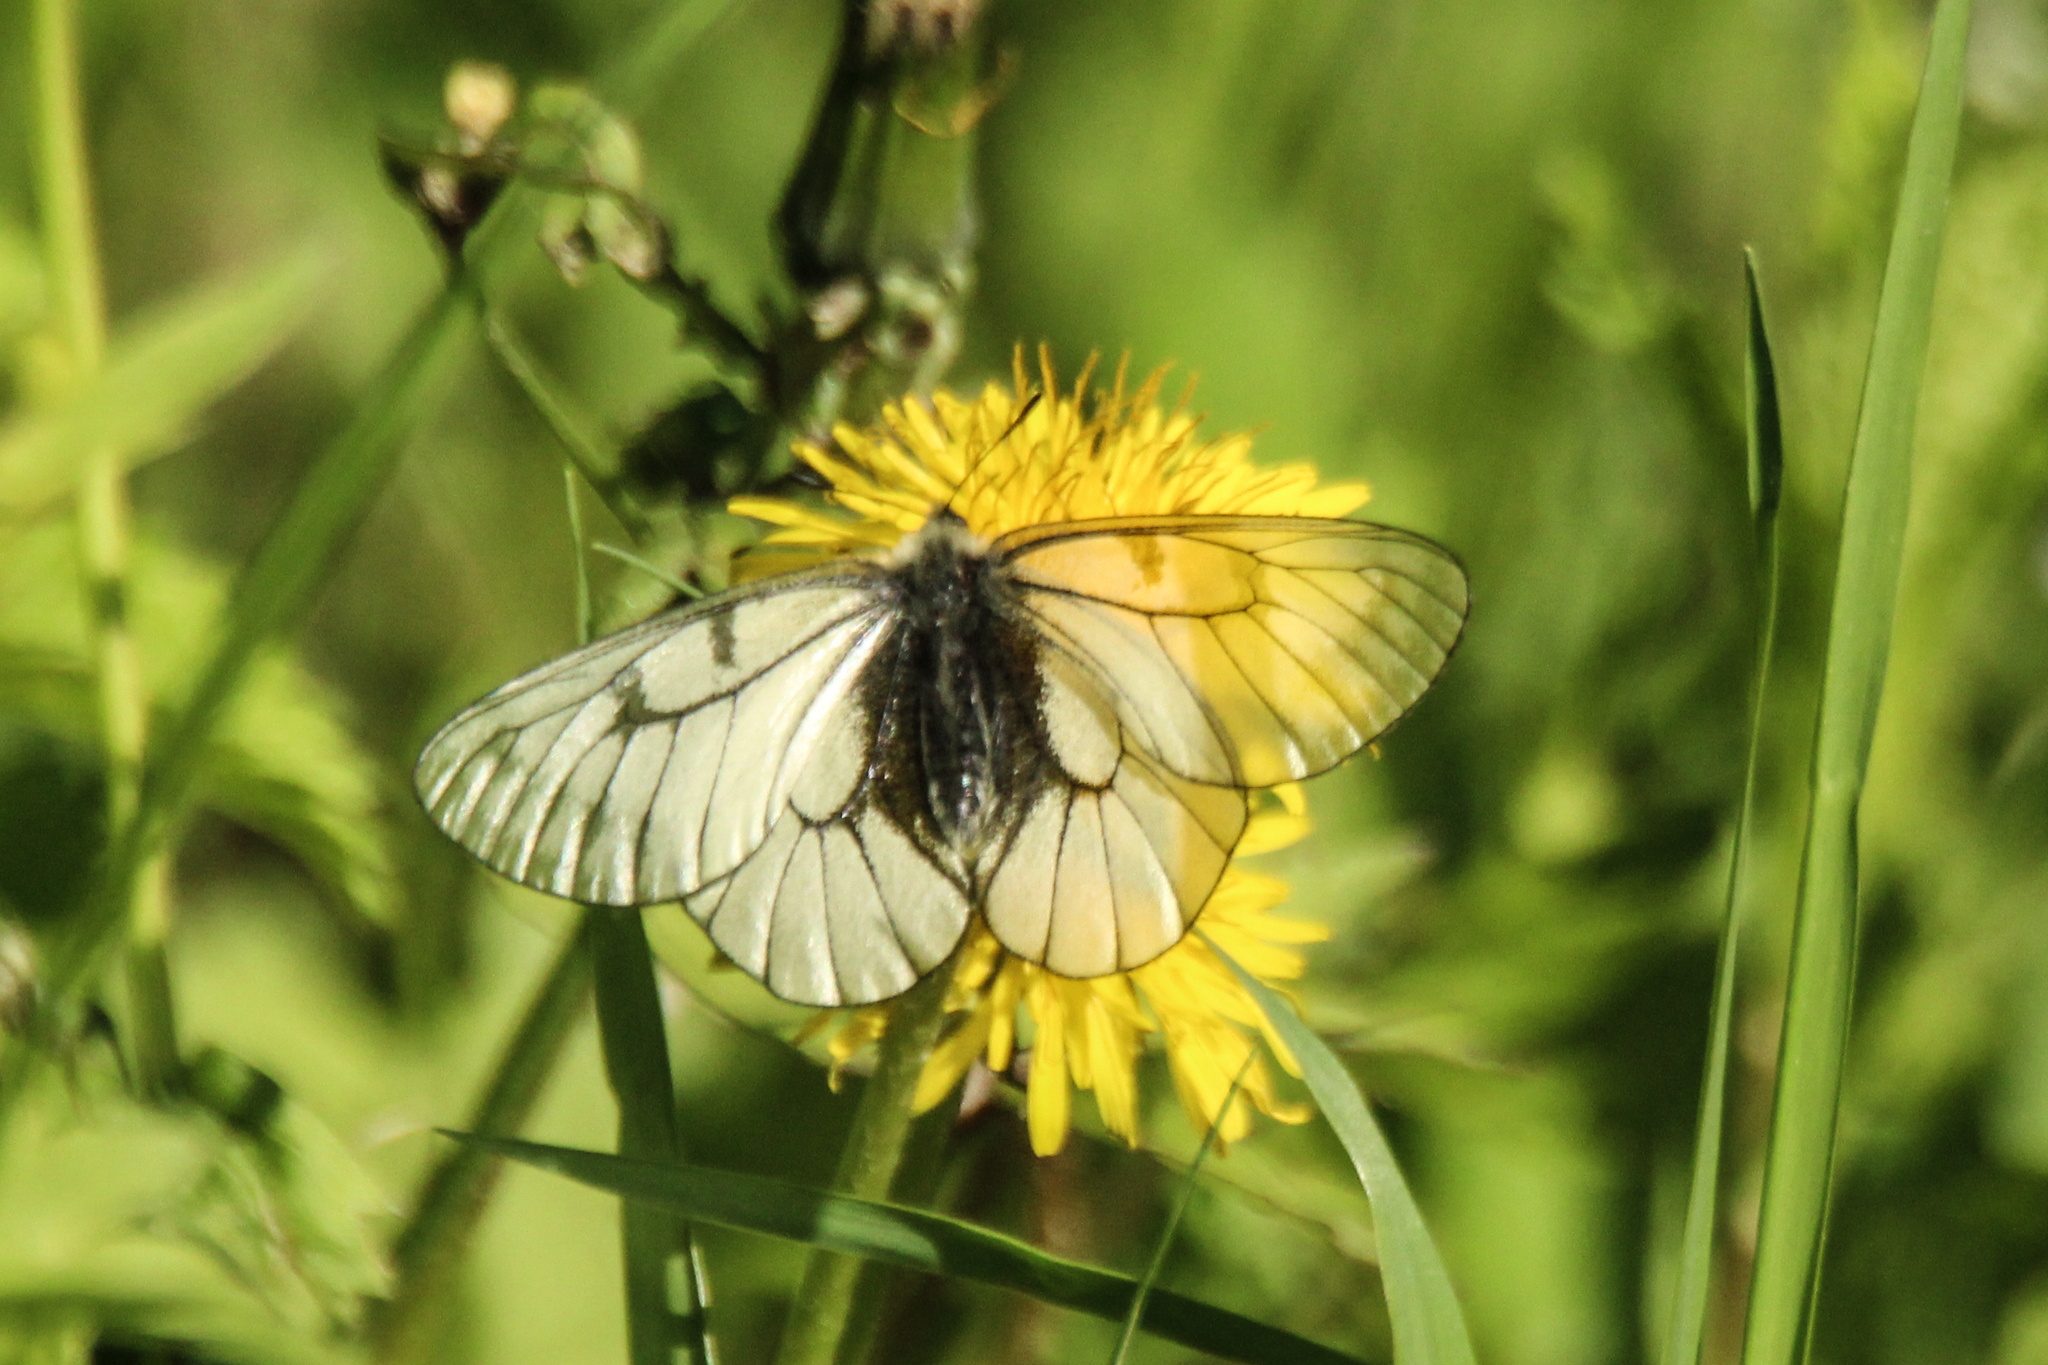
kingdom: Animalia
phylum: Arthropoda
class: Insecta
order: Lepidoptera
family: Papilionidae
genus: Parnassius
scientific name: Parnassius stubbendorfii
